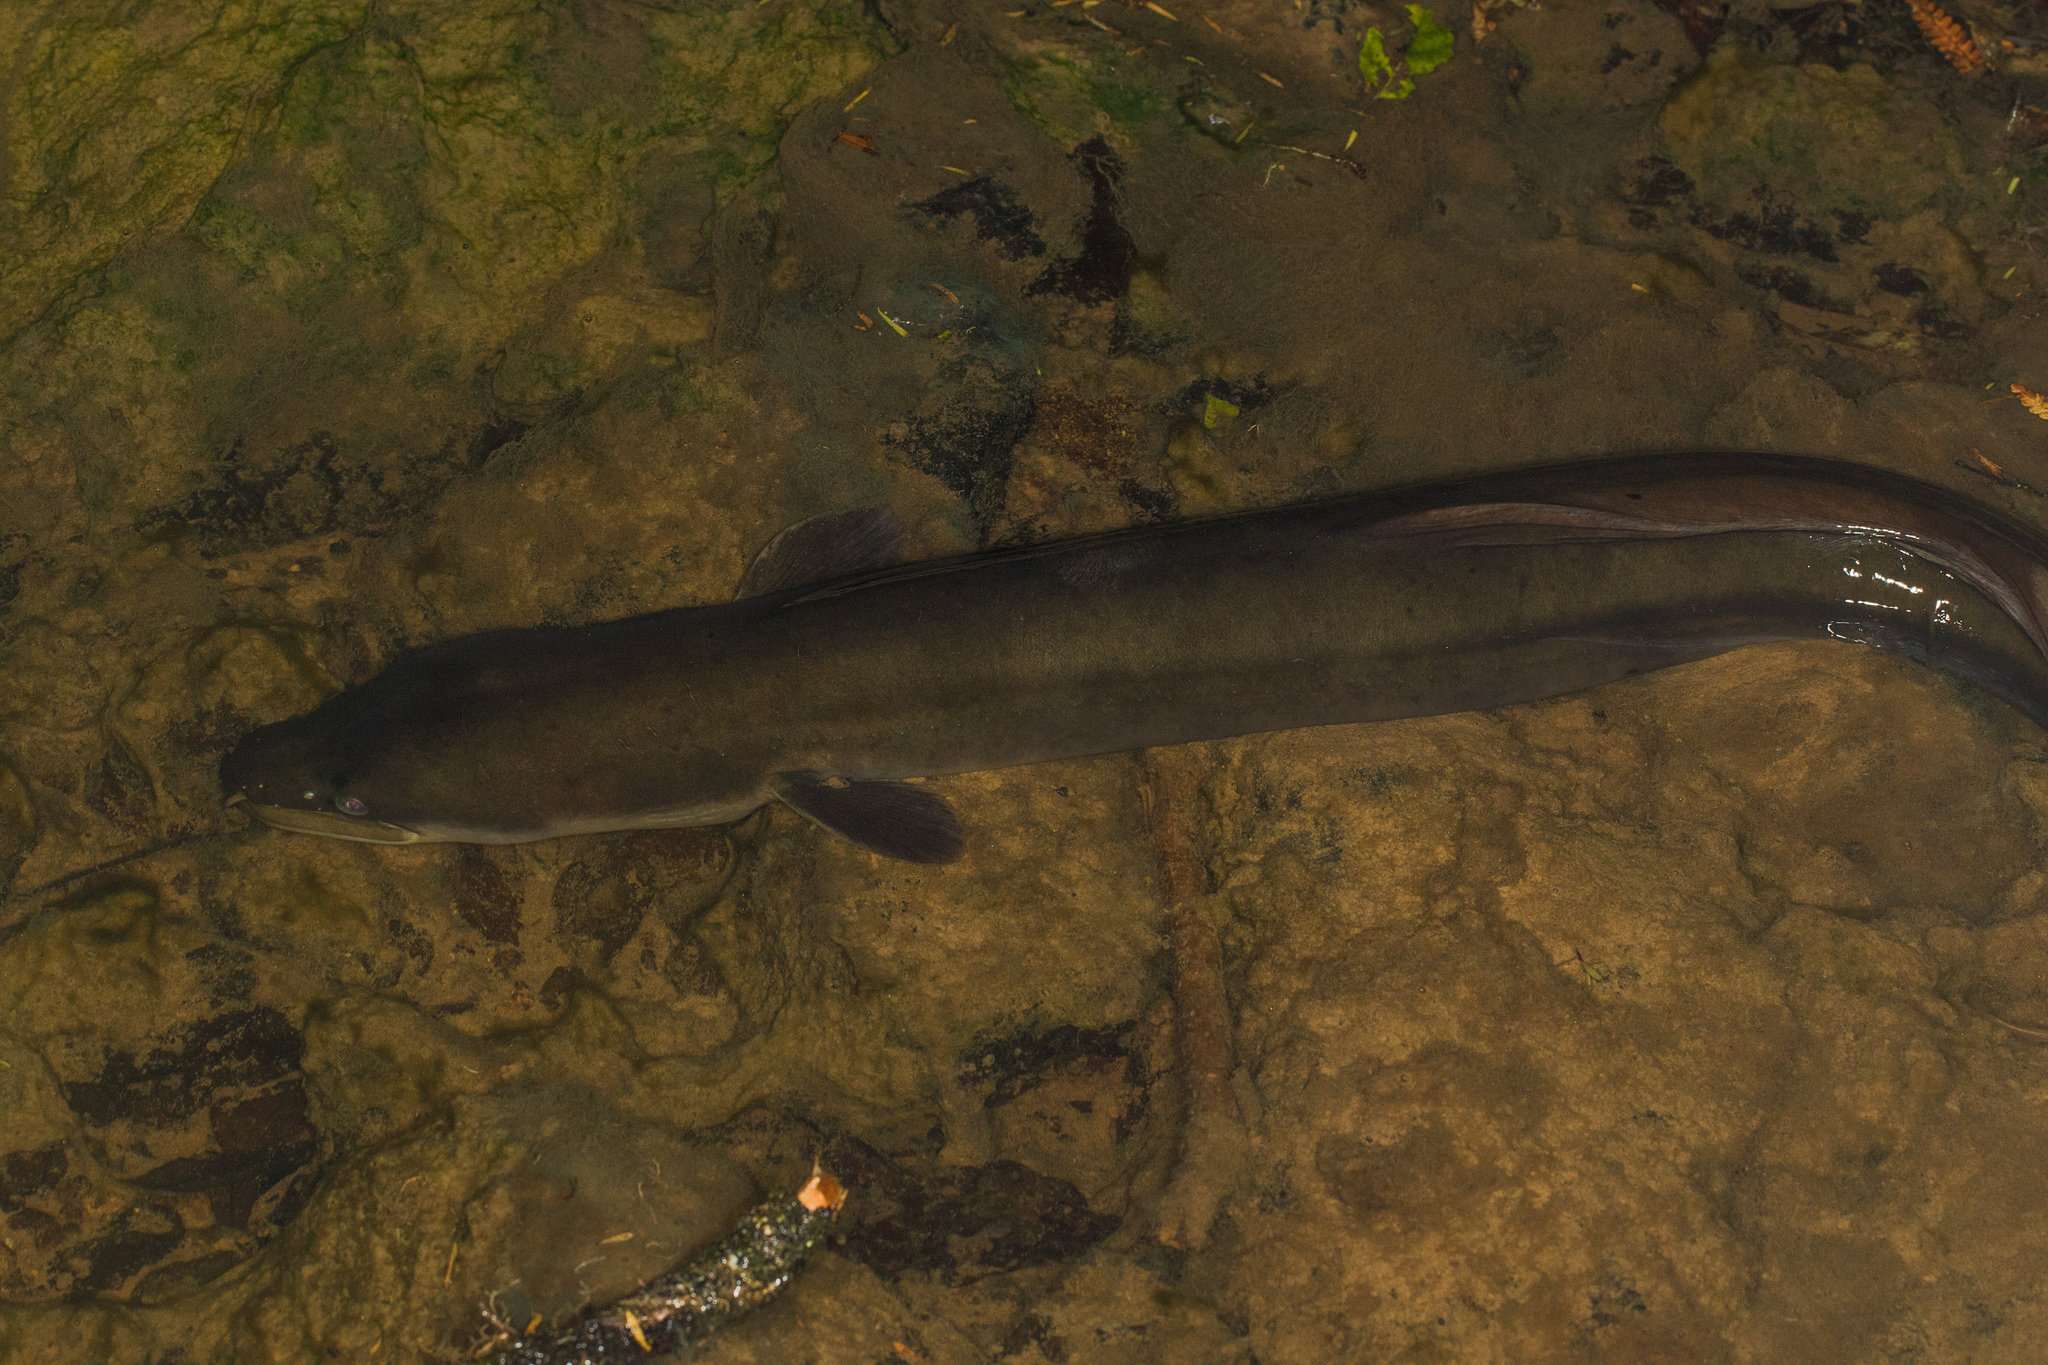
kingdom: Animalia
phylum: Chordata
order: Anguilliformes
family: Anguillidae
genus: Anguilla
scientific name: Anguilla dieffenbachii
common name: New zealand longfin eel
